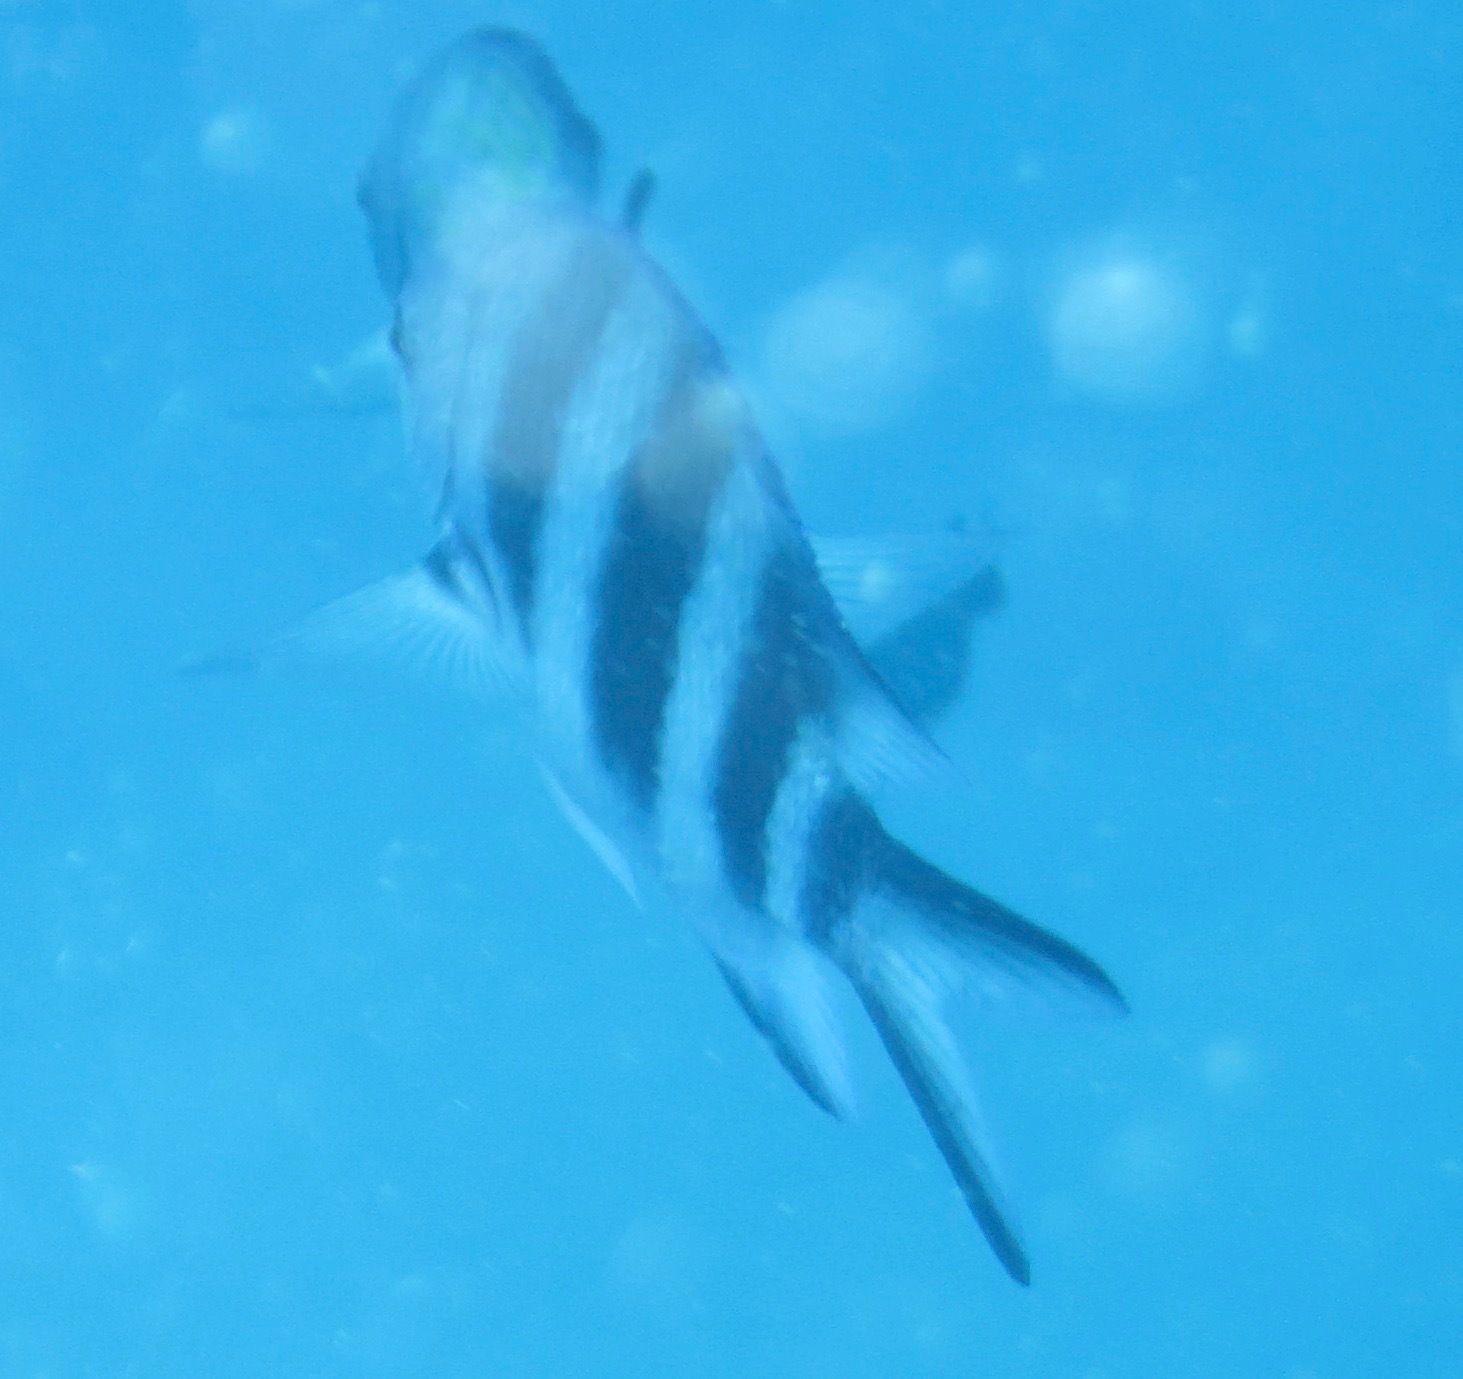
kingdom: Animalia
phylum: Chordata
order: Perciformes
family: Pomacentridae
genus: Abudefduf
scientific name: Abudefduf natalensis
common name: Natal sergeant
